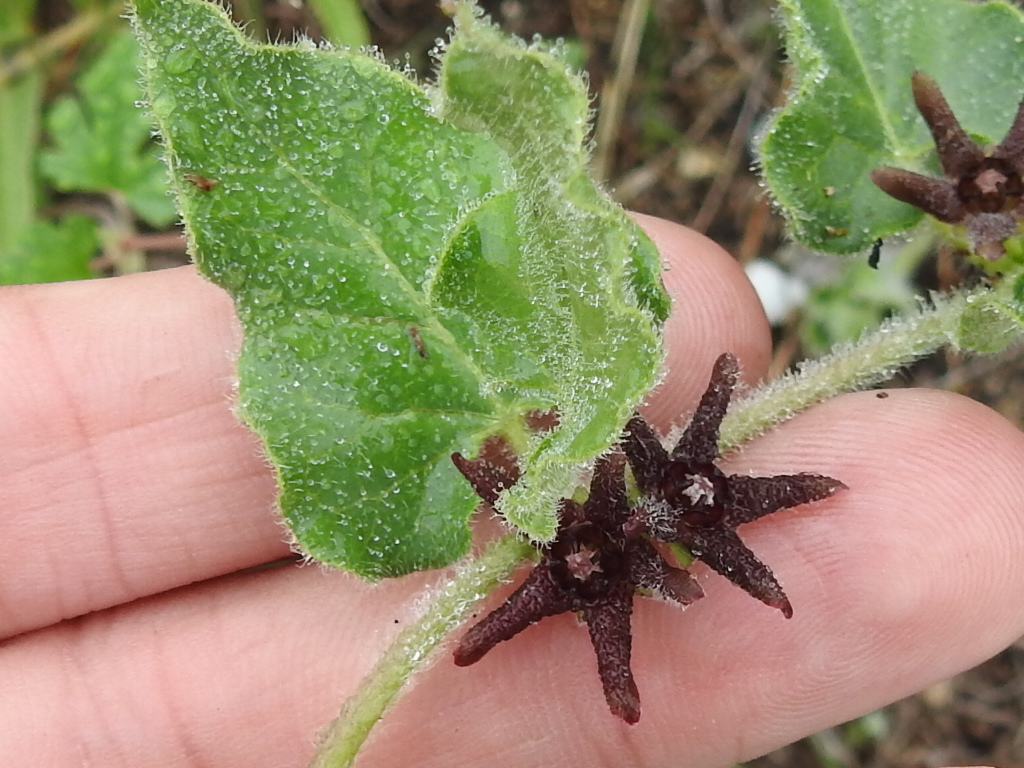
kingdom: Plantae
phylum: Tracheophyta
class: Magnoliopsida
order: Gentianales
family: Apocynaceae
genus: Chthamalia
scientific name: Chthamalia biflora
